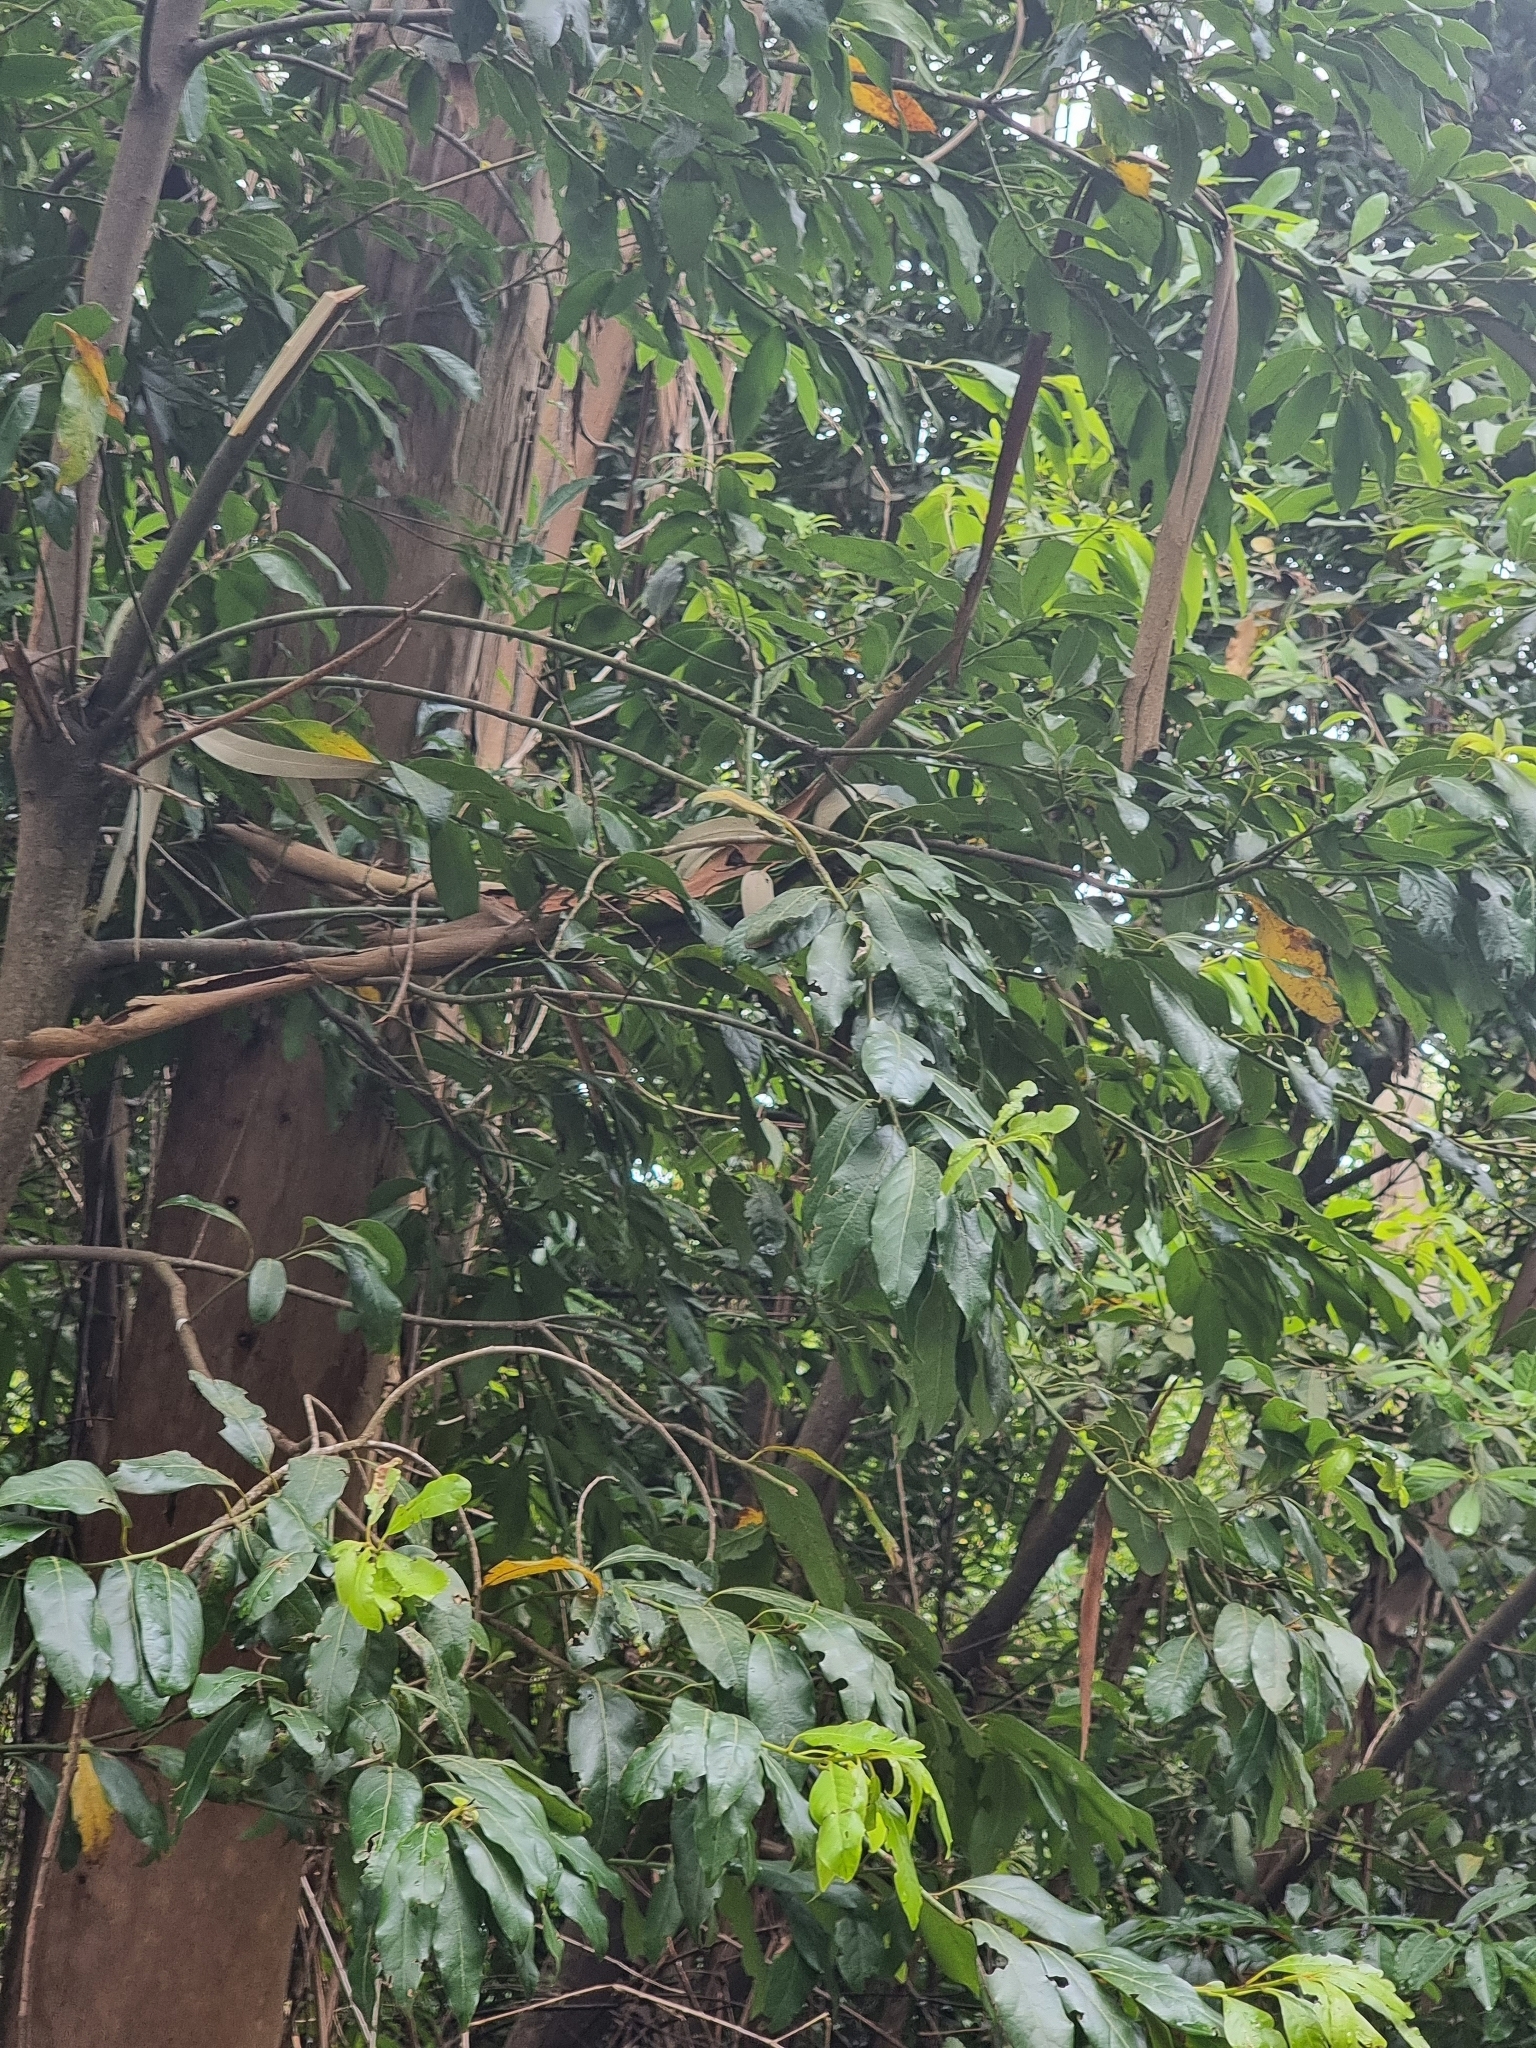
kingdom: Plantae
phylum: Tracheophyta
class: Magnoliopsida
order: Laurales
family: Lauraceae
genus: Laurus
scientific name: Laurus novocanariensis
